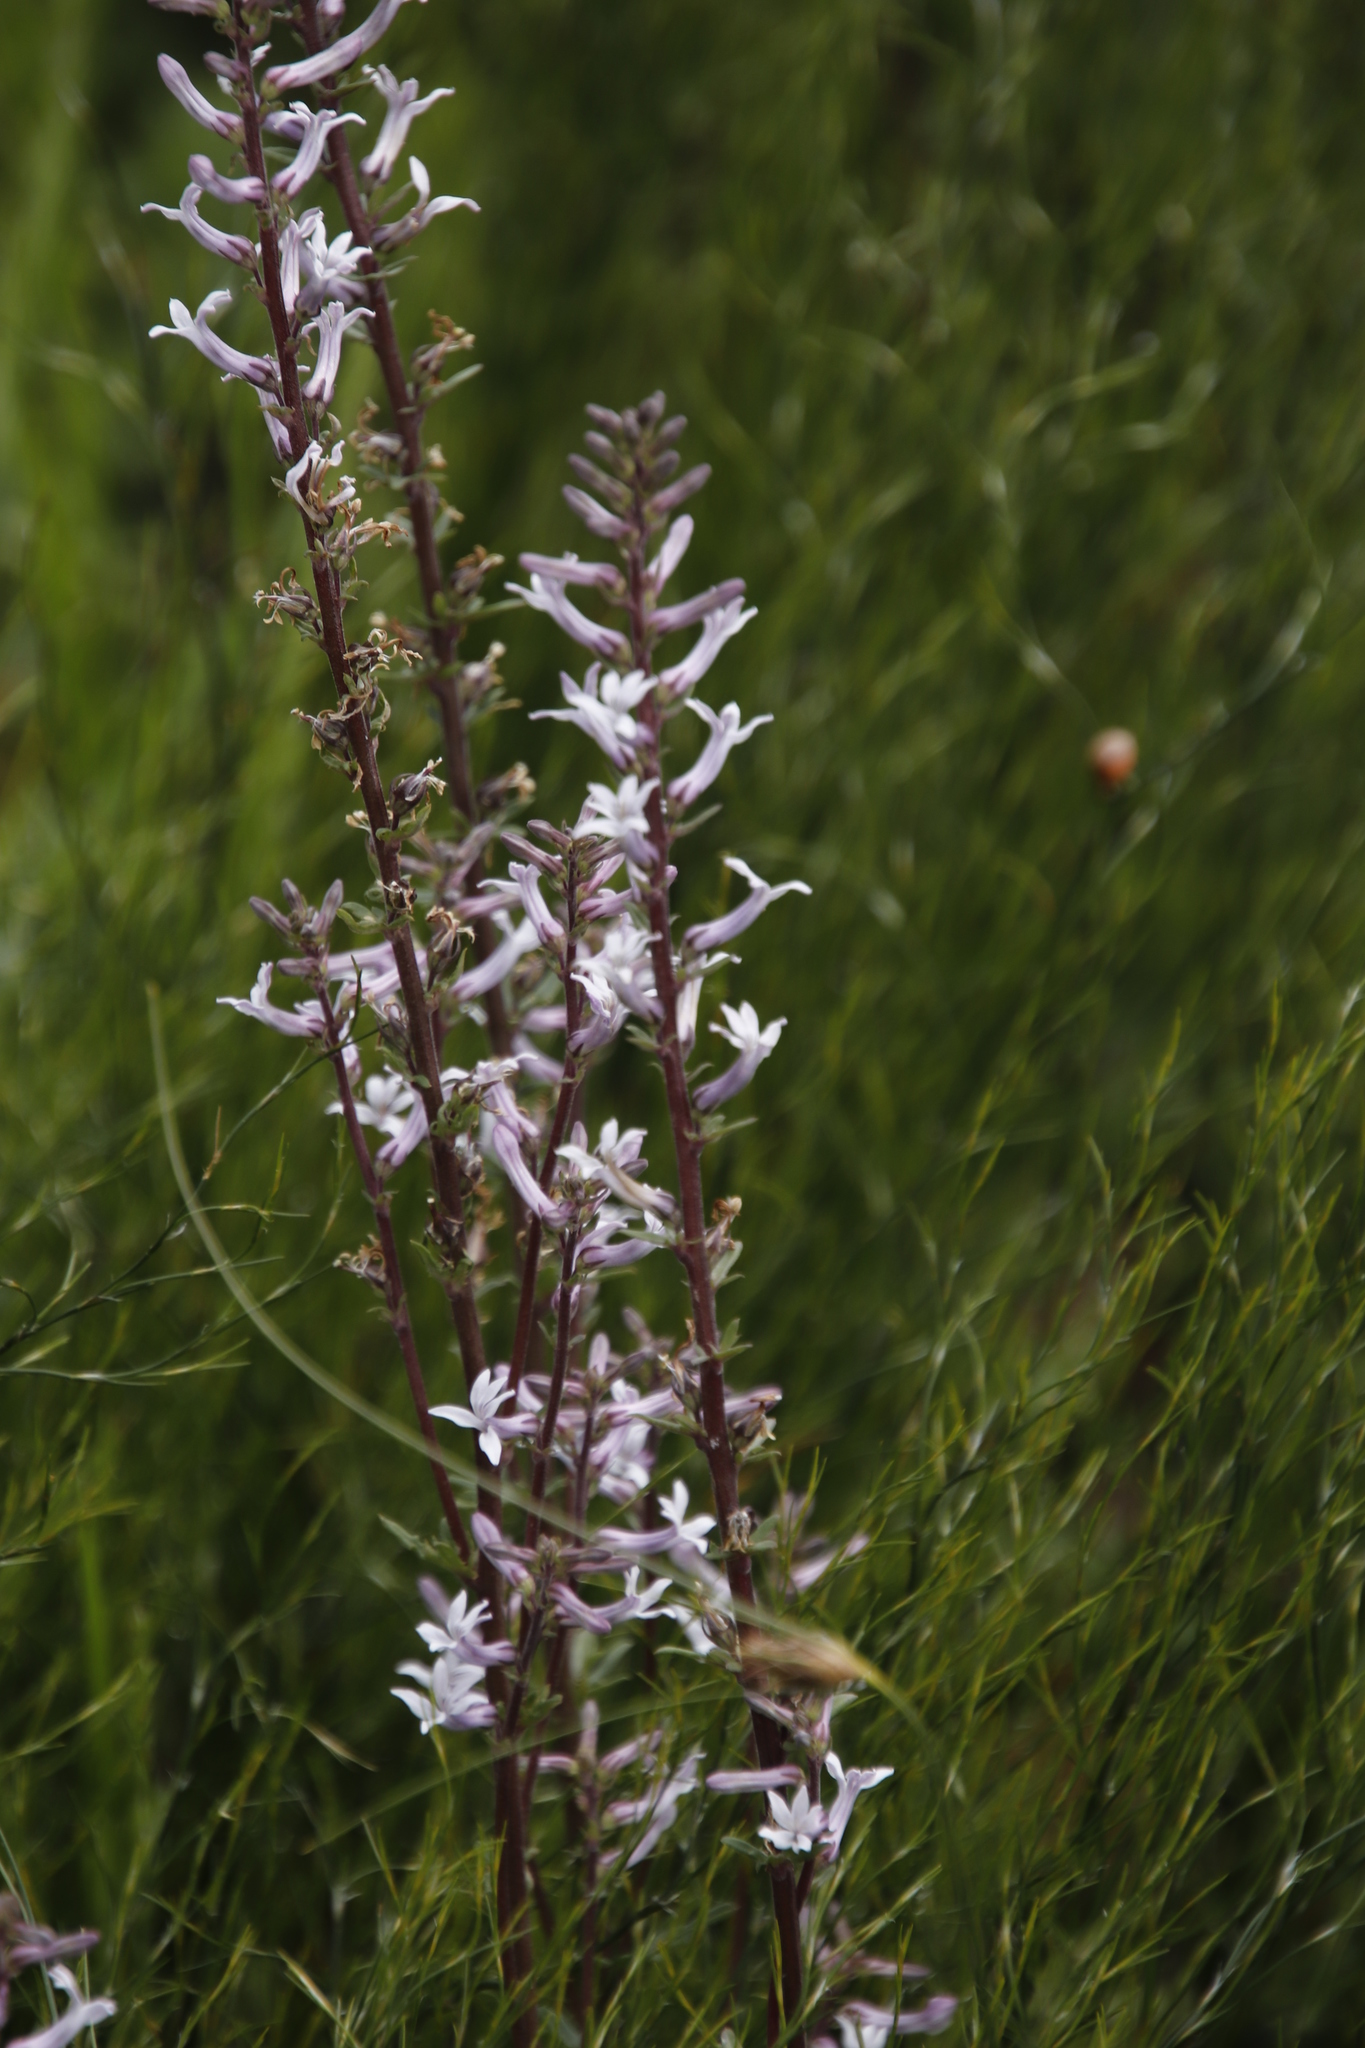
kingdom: Plantae
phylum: Tracheophyta
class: Magnoliopsida
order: Asterales
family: Campanulaceae
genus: Cyphia
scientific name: Cyphia bulbosa
